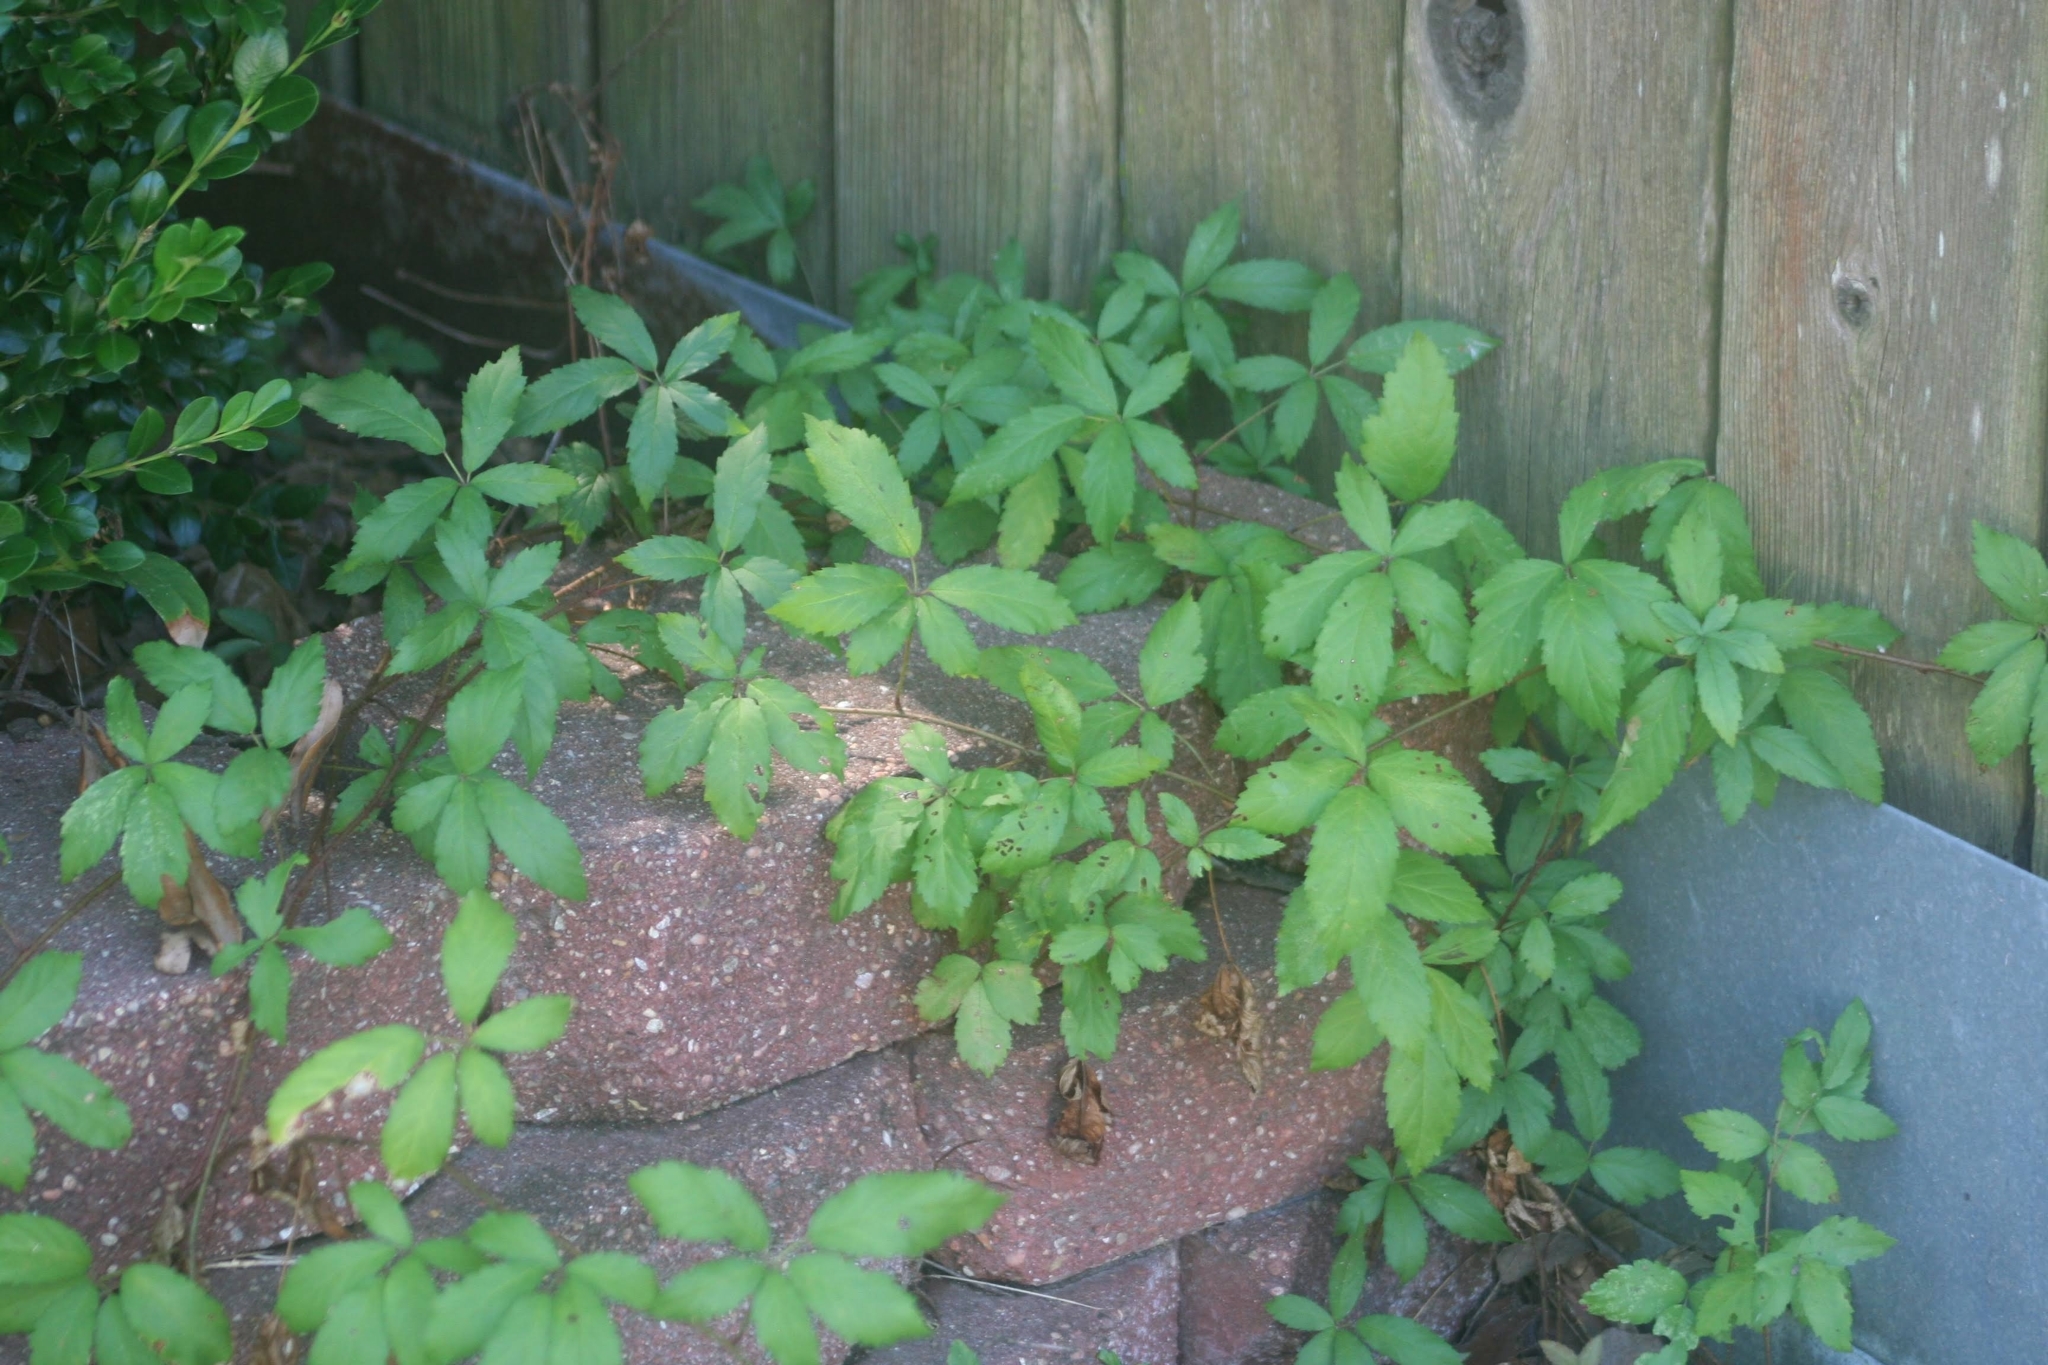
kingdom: Plantae
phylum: Tracheophyta
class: Magnoliopsida
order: Vitales
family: Vitaceae
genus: Parthenocissus
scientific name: Parthenocissus quinquefolia
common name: Virginia-creeper
